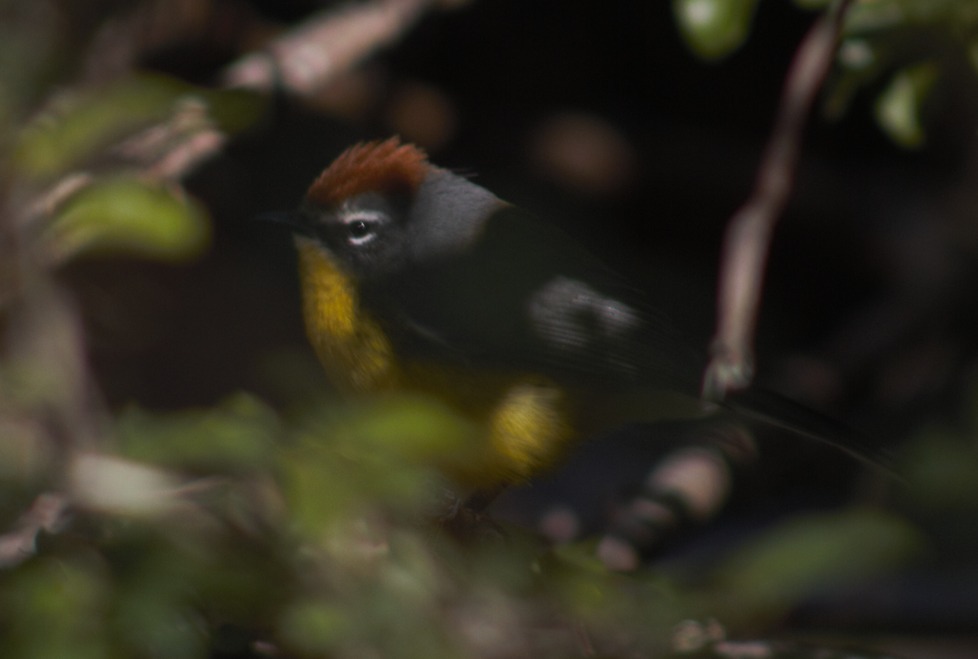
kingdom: Animalia
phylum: Chordata
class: Aves
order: Passeriformes
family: Parulidae
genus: Myioborus
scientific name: Myioborus brunniceps
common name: Brown-capped whitestart
